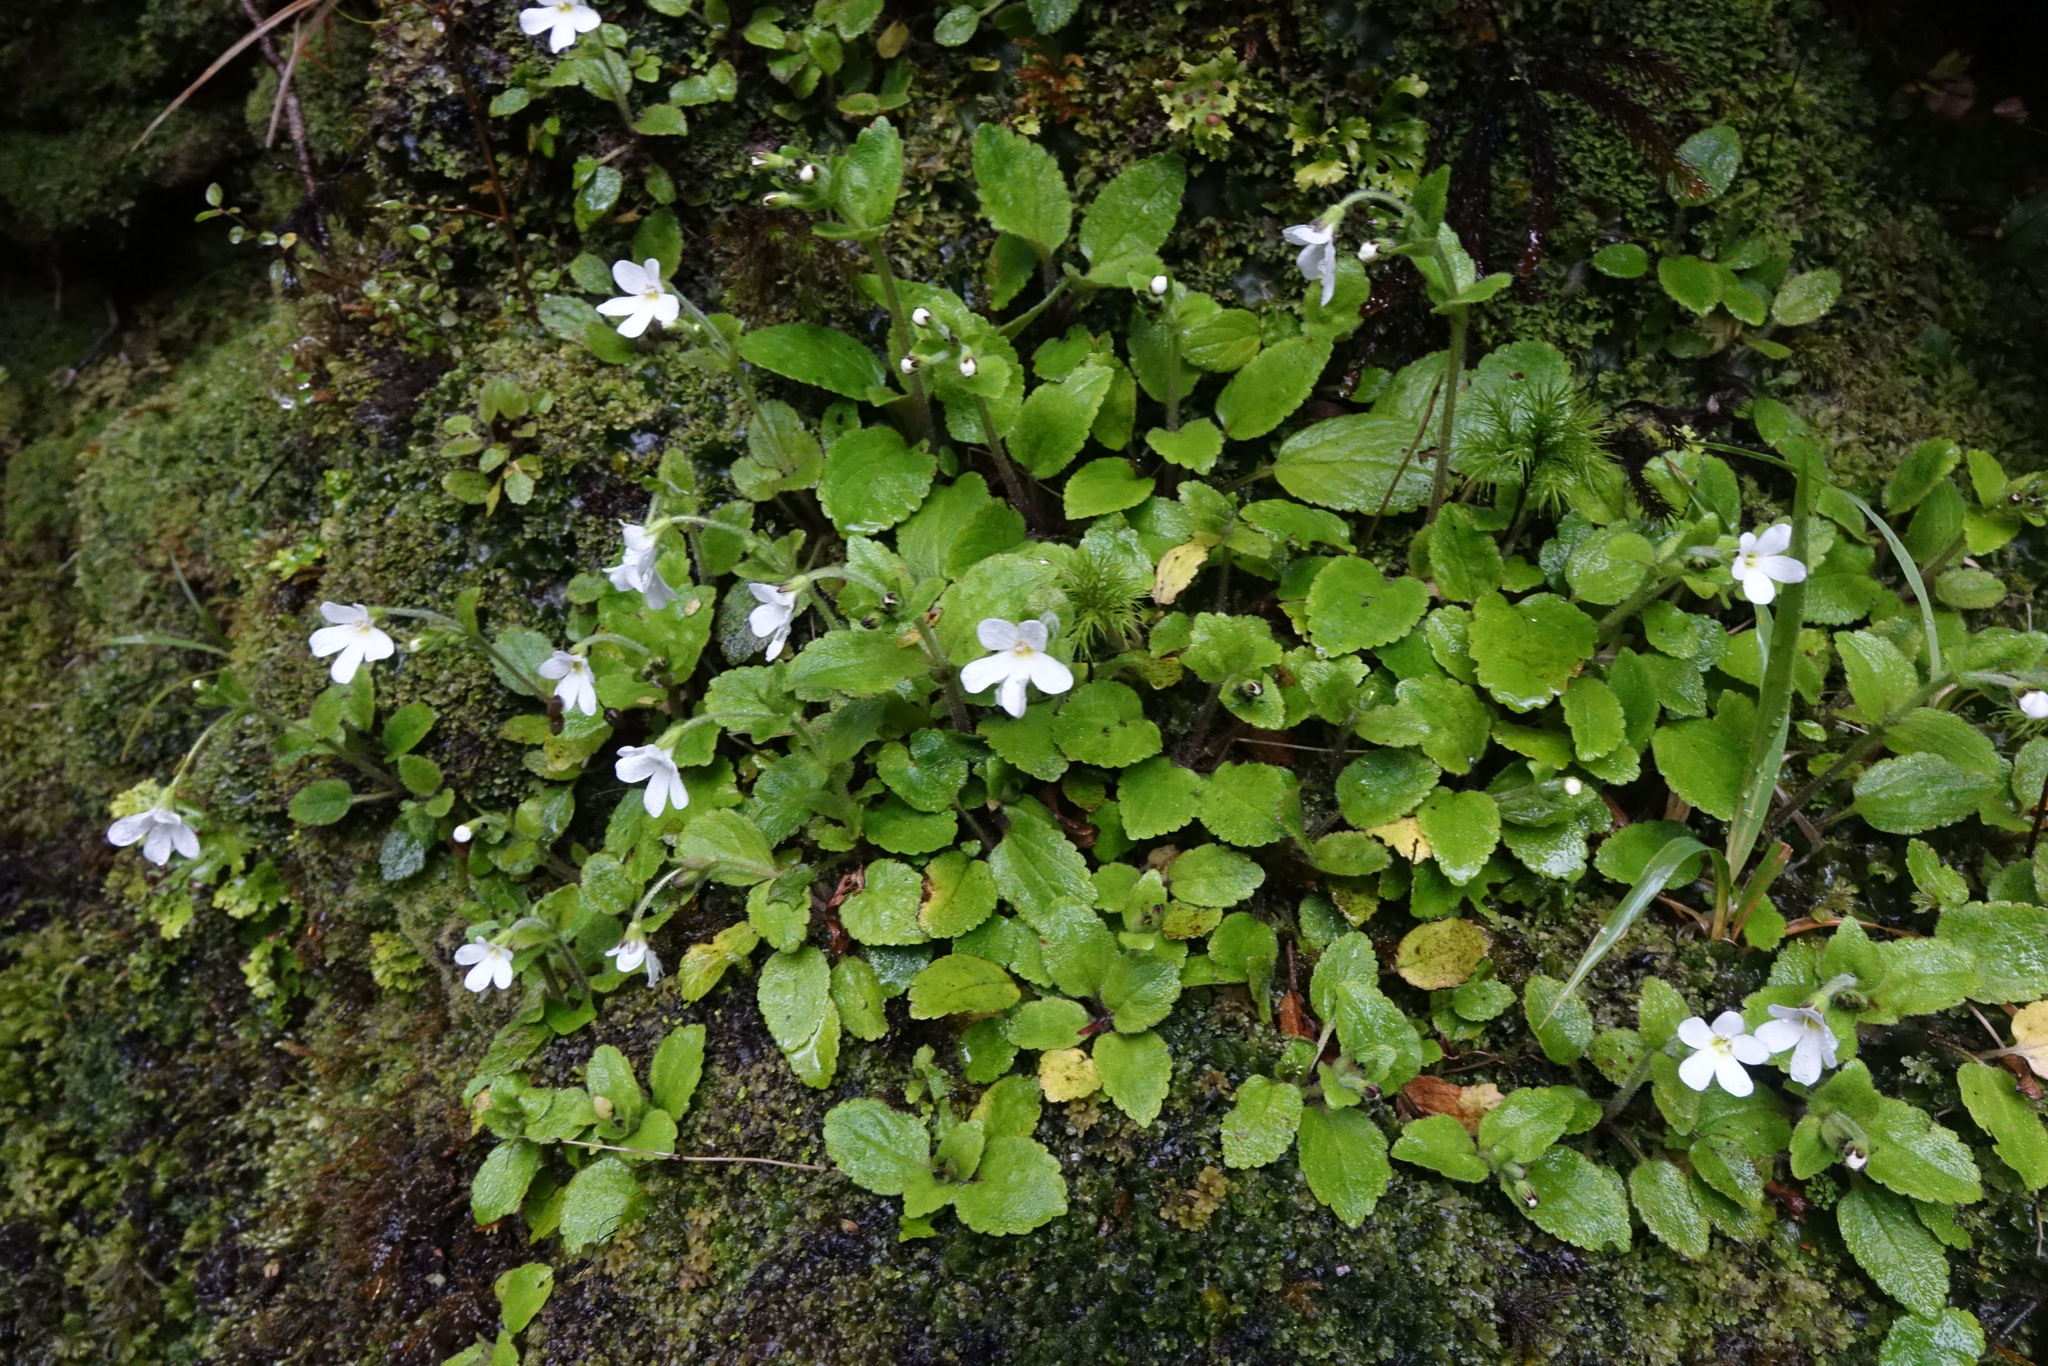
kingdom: Plantae
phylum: Tracheophyta
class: Magnoliopsida
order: Lamiales
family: Plantaginaceae
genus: Ourisia
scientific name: Ourisia crosbyi
